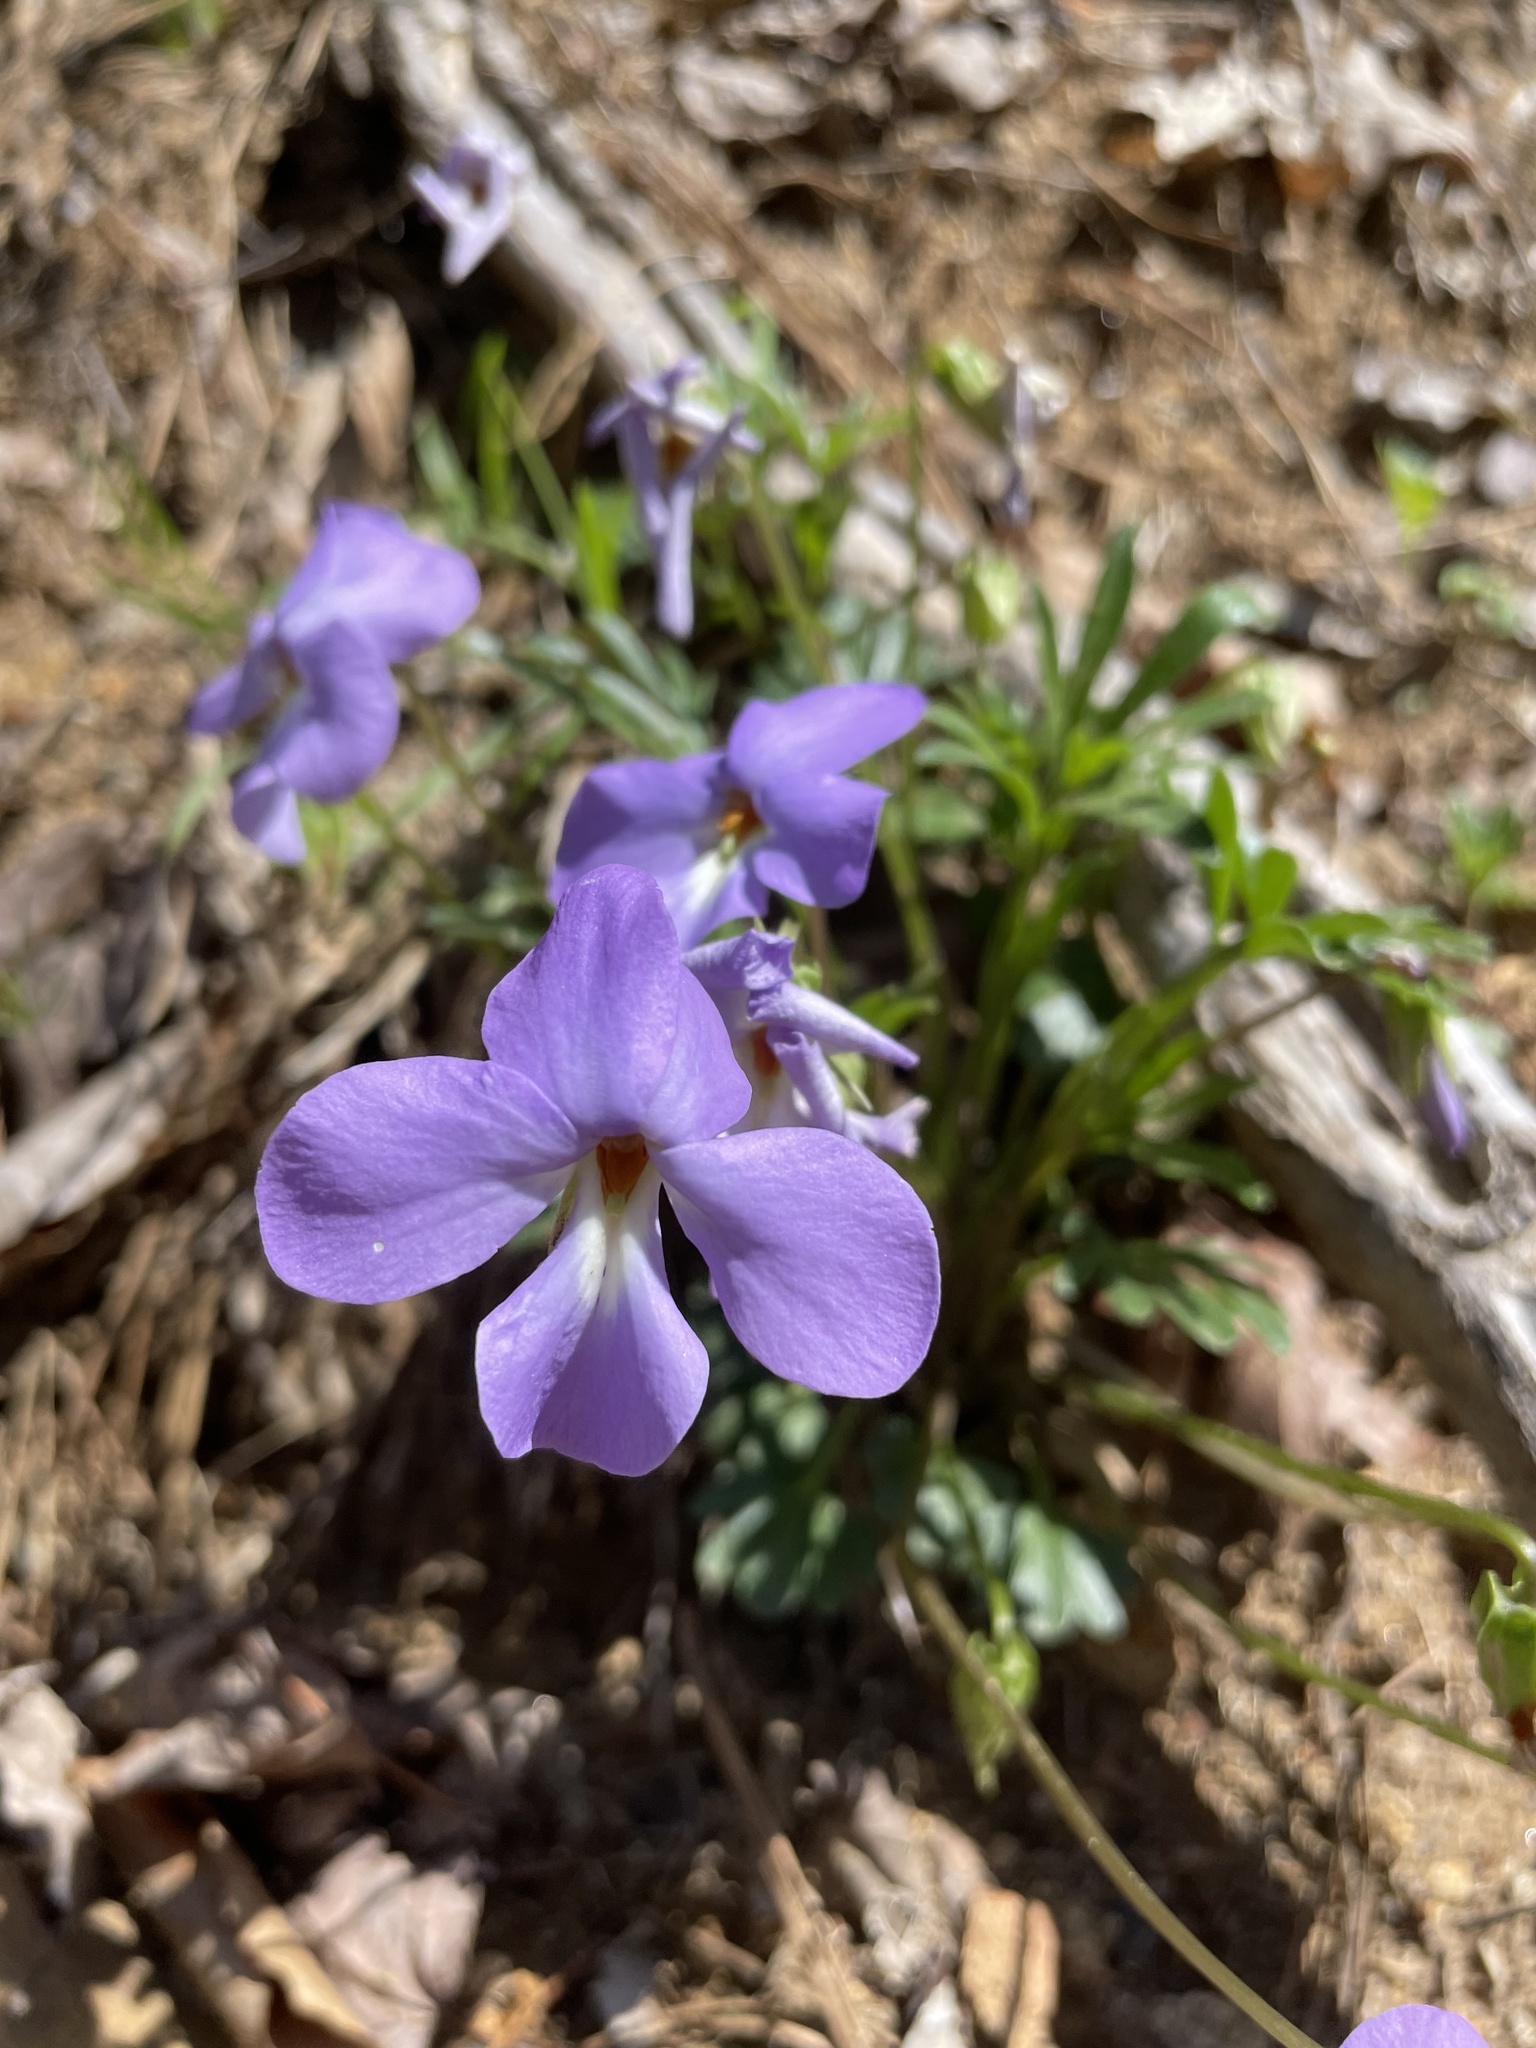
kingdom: Plantae
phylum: Tracheophyta
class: Magnoliopsida
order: Malpighiales
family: Violaceae
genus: Viola
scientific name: Viola pedata
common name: Pansy violet
